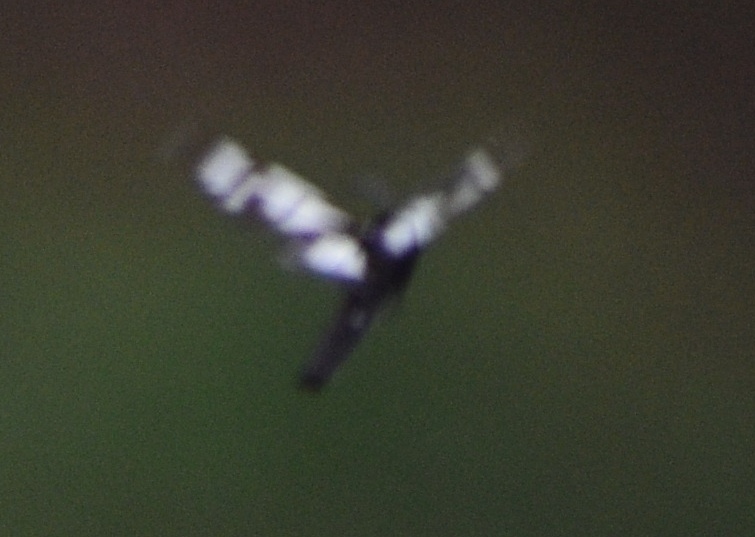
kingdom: Animalia
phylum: Arthropoda
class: Insecta
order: Lepidoptera
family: Erebidae
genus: Gnophaela
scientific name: Gnophaela vermiculata
